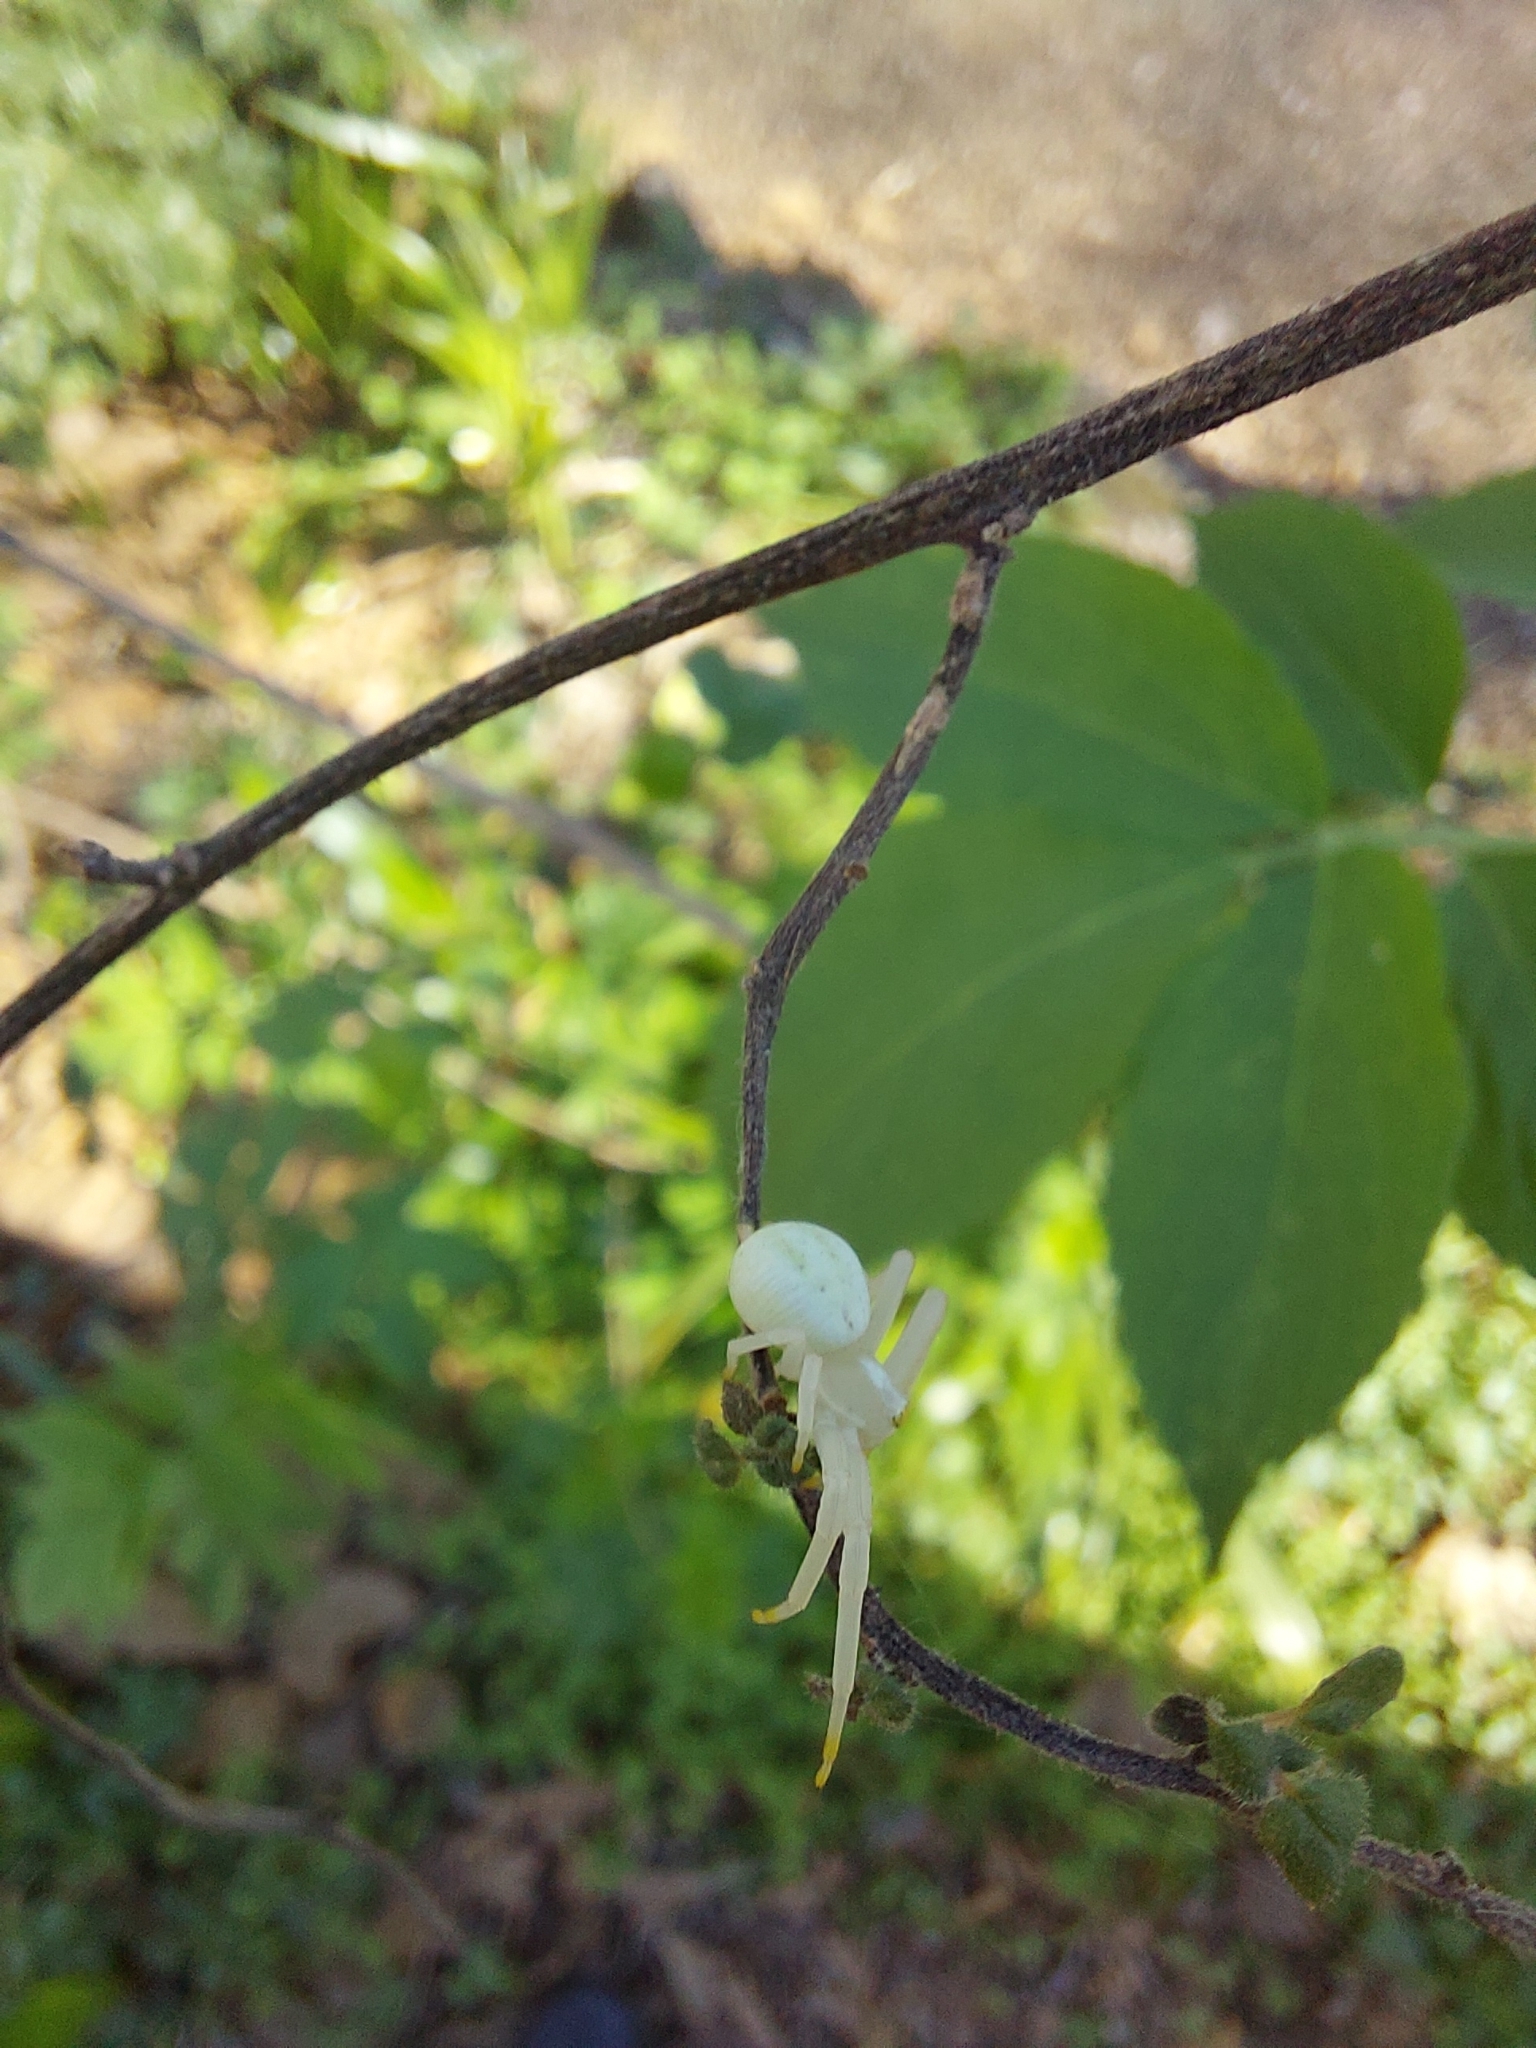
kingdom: Animalia
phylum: Arthropoda
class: Arachnida
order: Araneae
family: Thomisidae
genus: Misumena
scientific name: Misumena vatia
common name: Goldenrod crab spider
